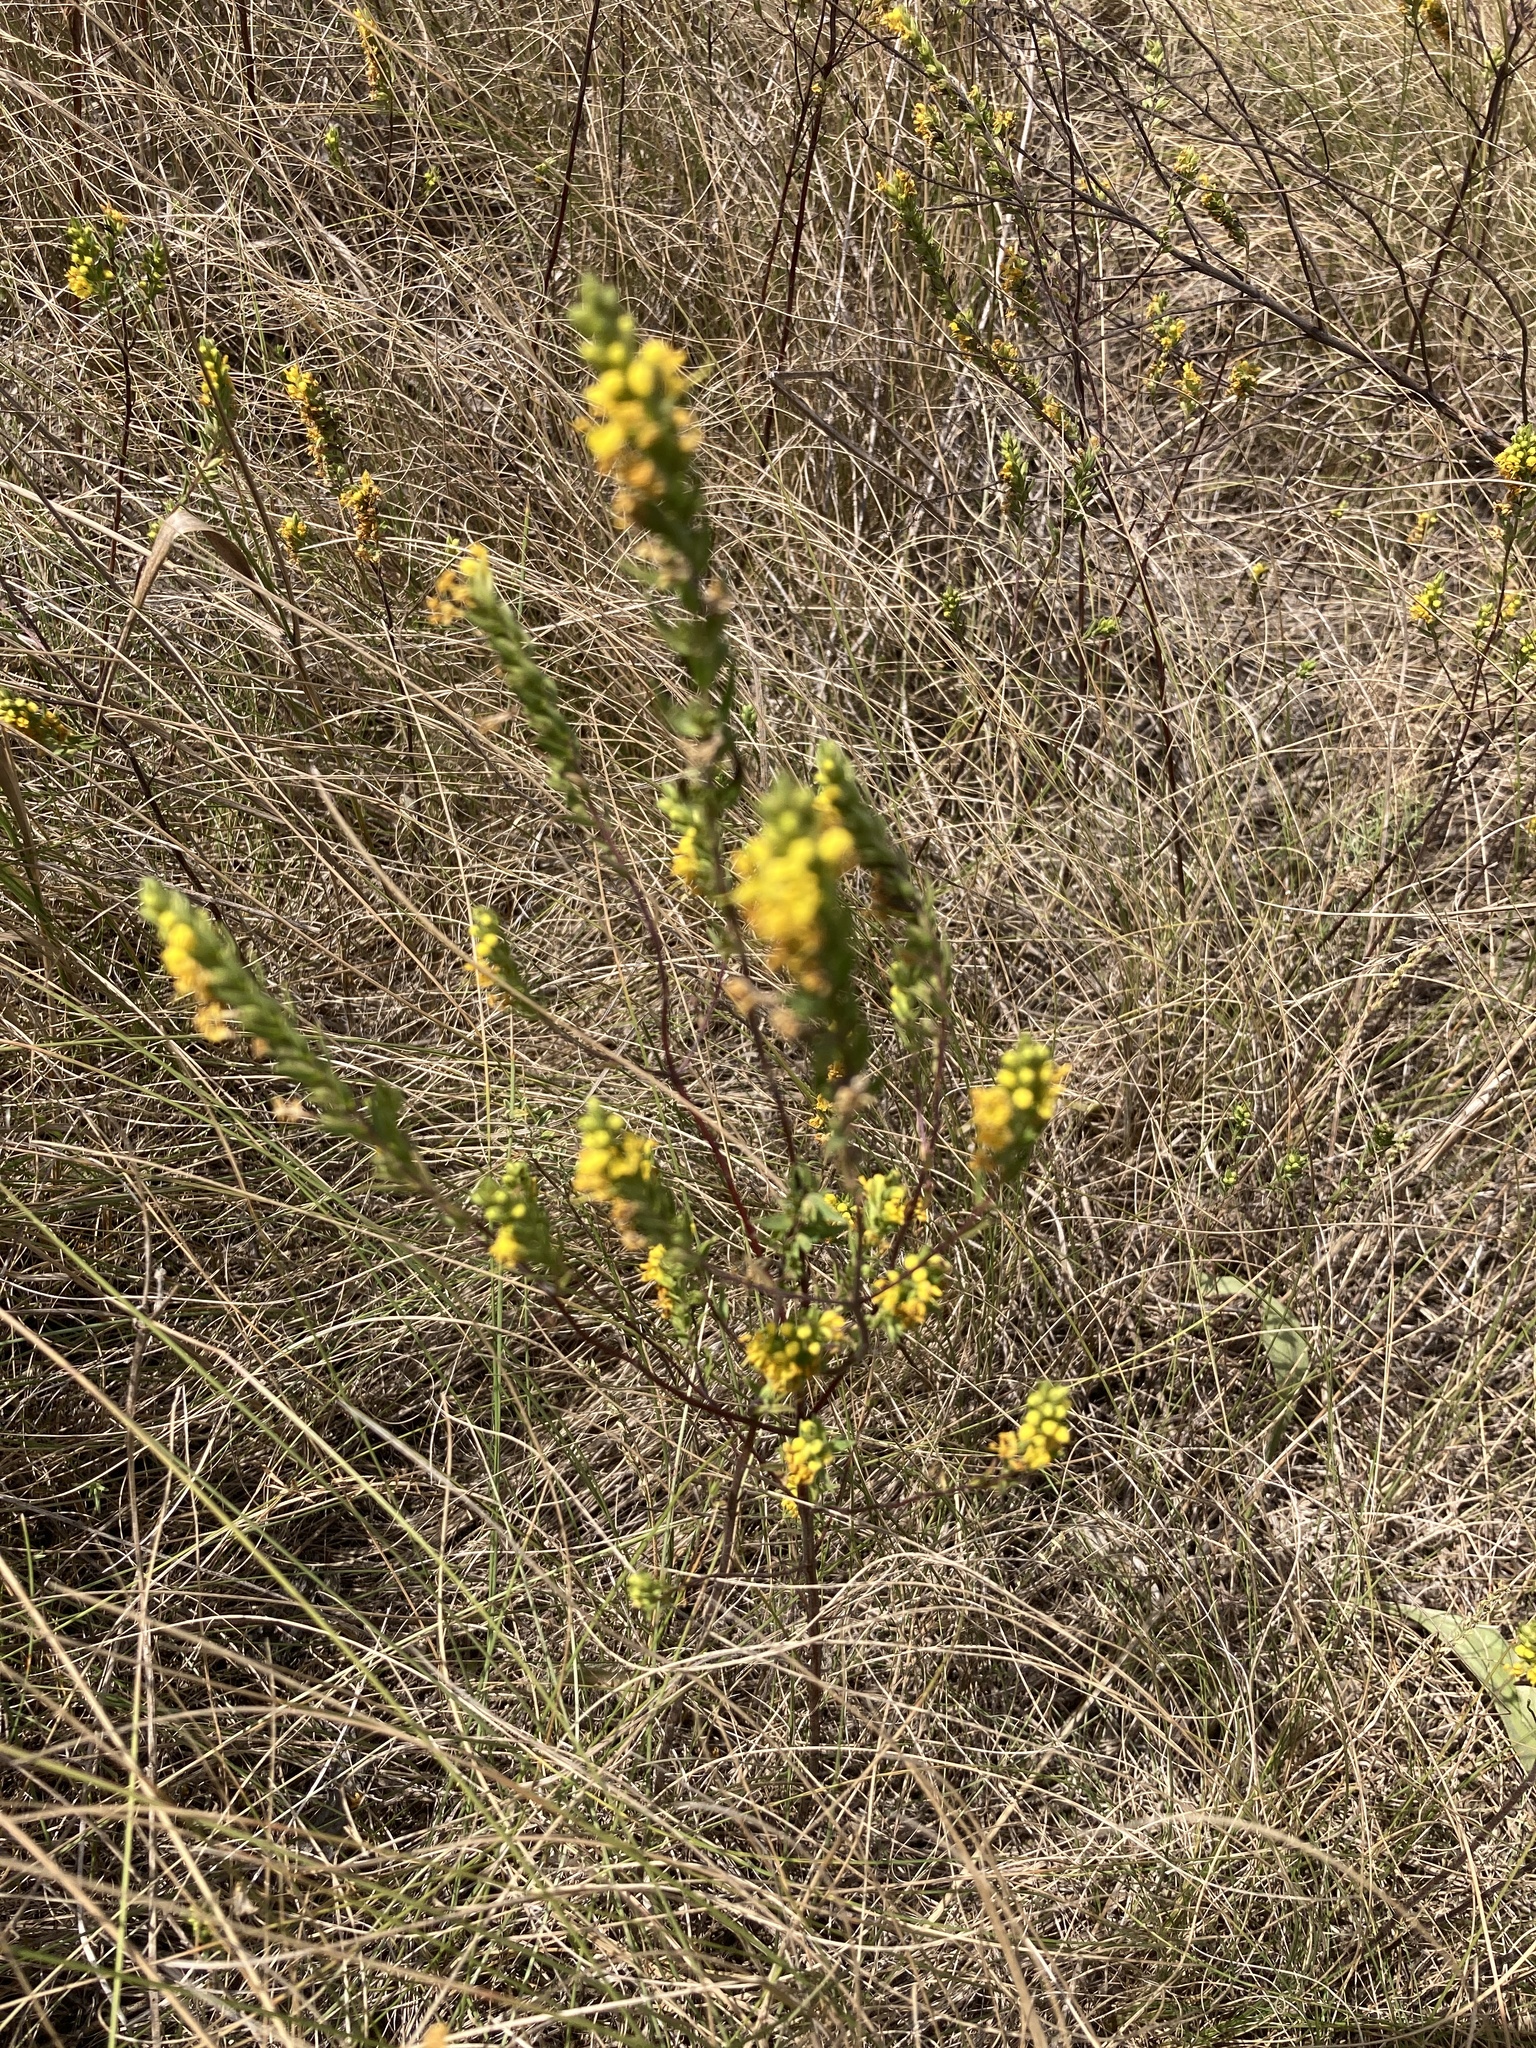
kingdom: Plantae
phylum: Tracheophyta
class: Magnoliopsida
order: Lamiales
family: Orobanchaceae
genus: Odontites
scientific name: Odontites luteus
